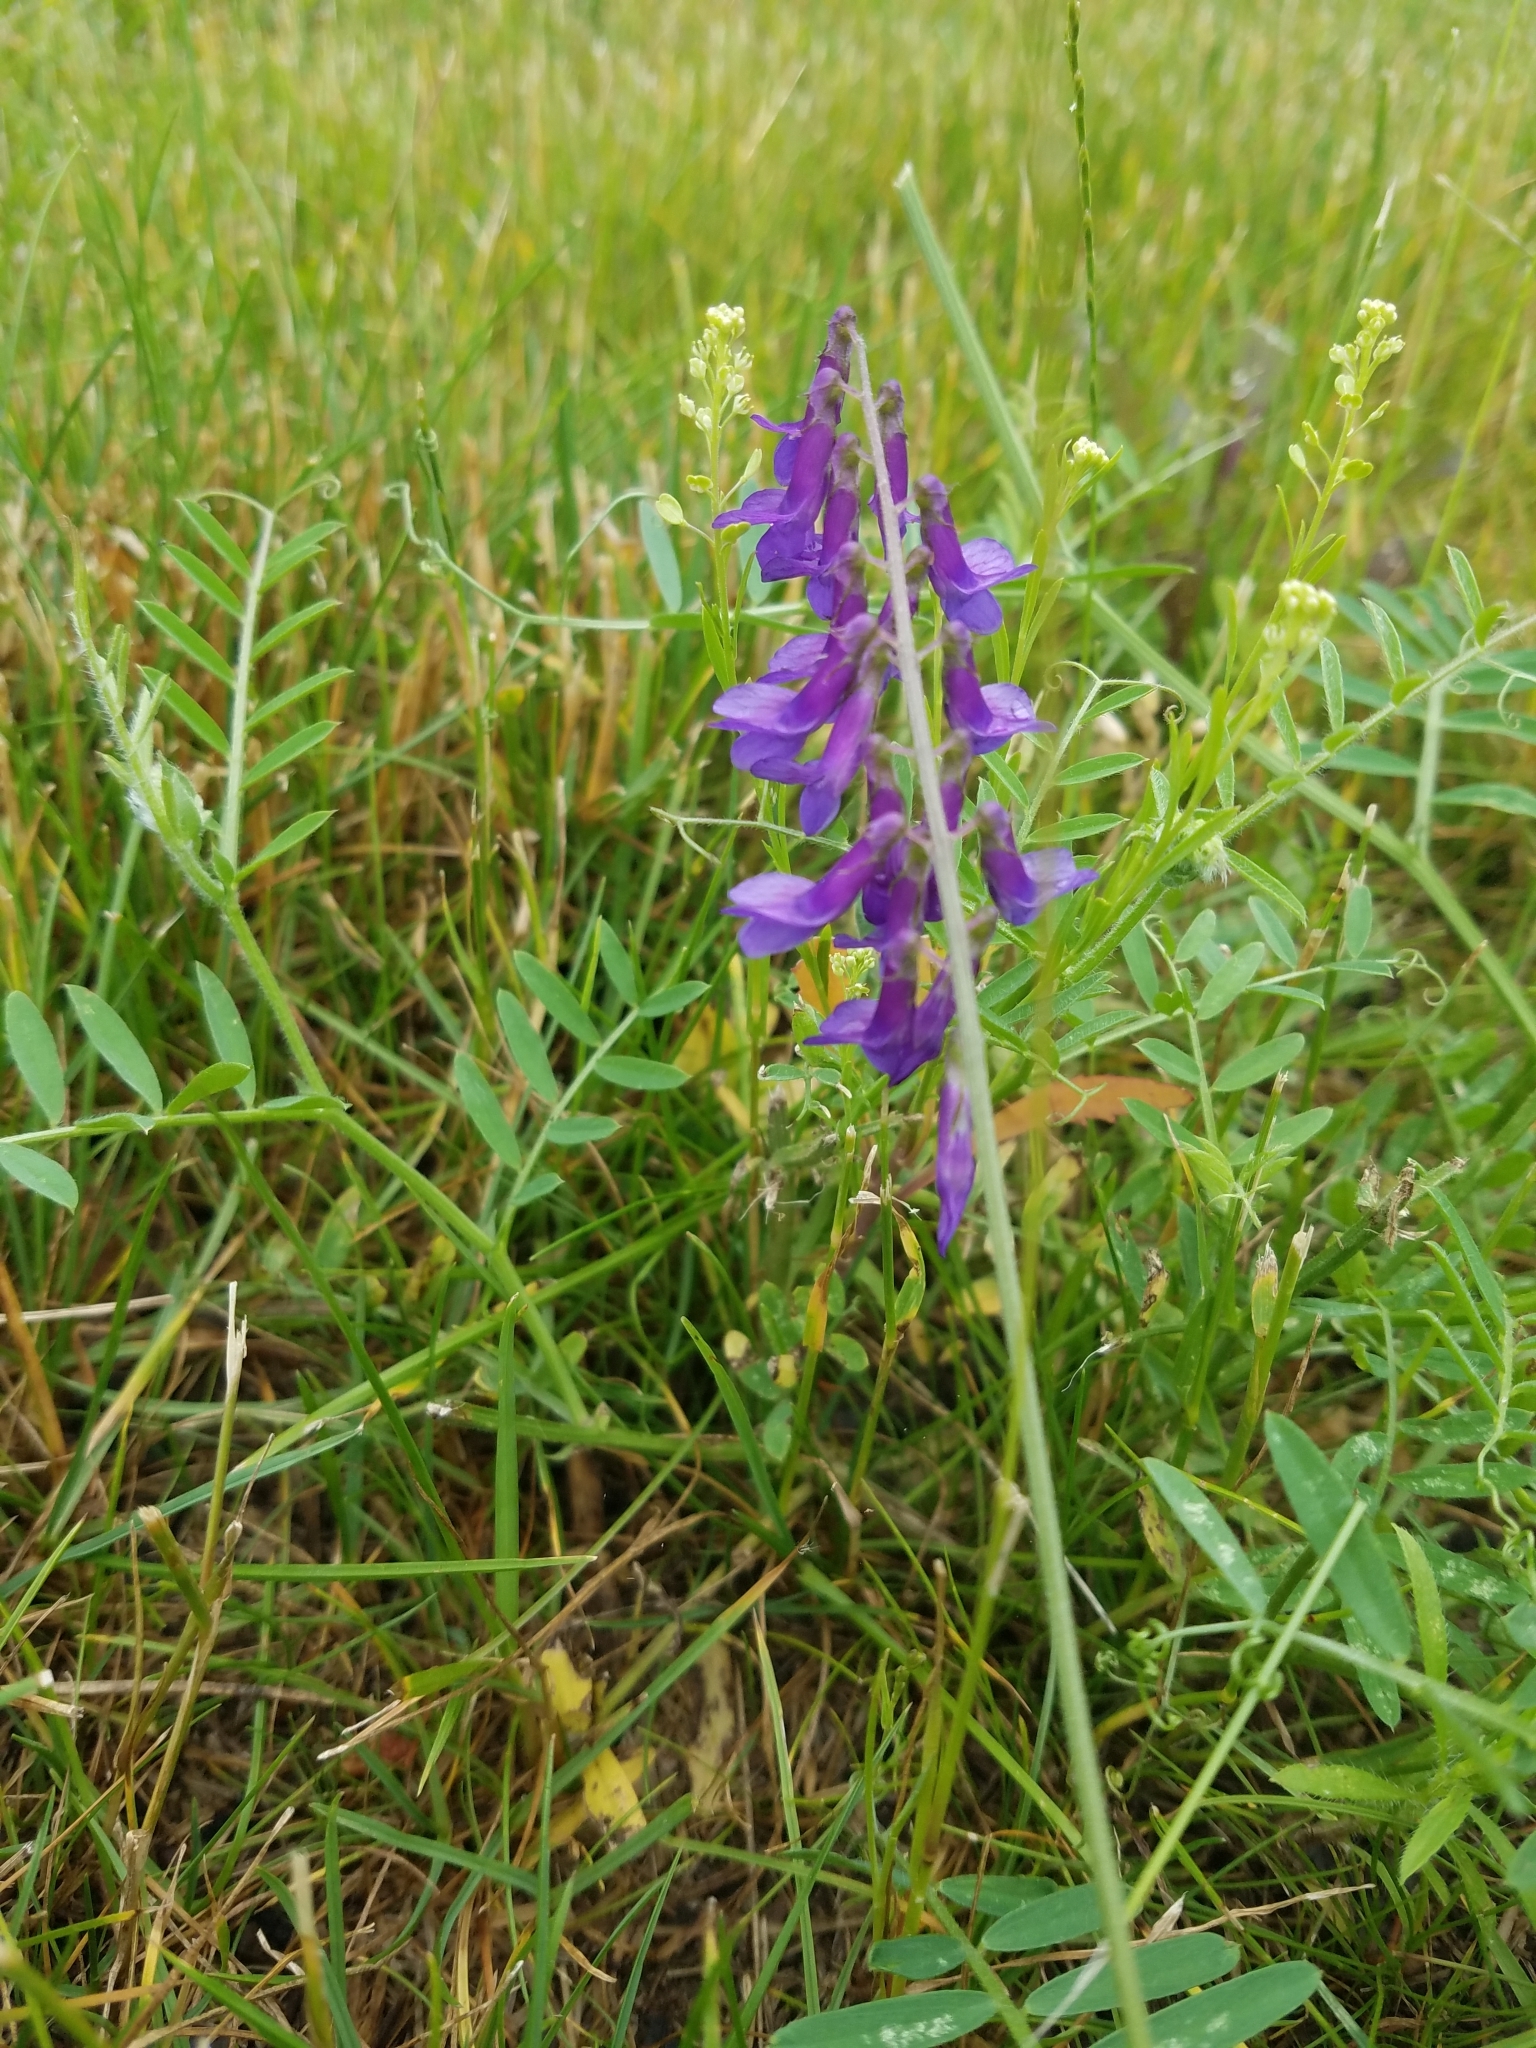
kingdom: Plantae
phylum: Tracheophyta
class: Magnoliopsida
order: Fabales
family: Fabaceae
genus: Vicia
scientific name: Vicia villosa
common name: Fodder vetch
